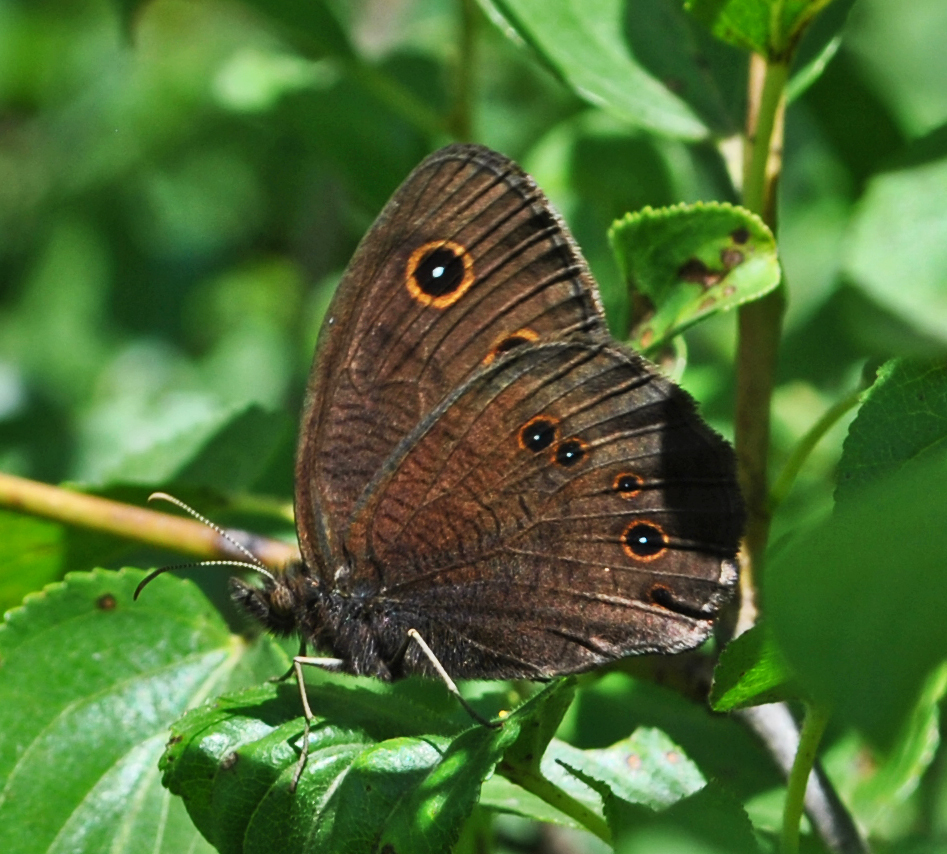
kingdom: Animalia
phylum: Arthropoda
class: Insecta
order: Lepidoptera
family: Nymphalidae
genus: Cercyonis
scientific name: Cercyonis pegala
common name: Common wood-nymph
